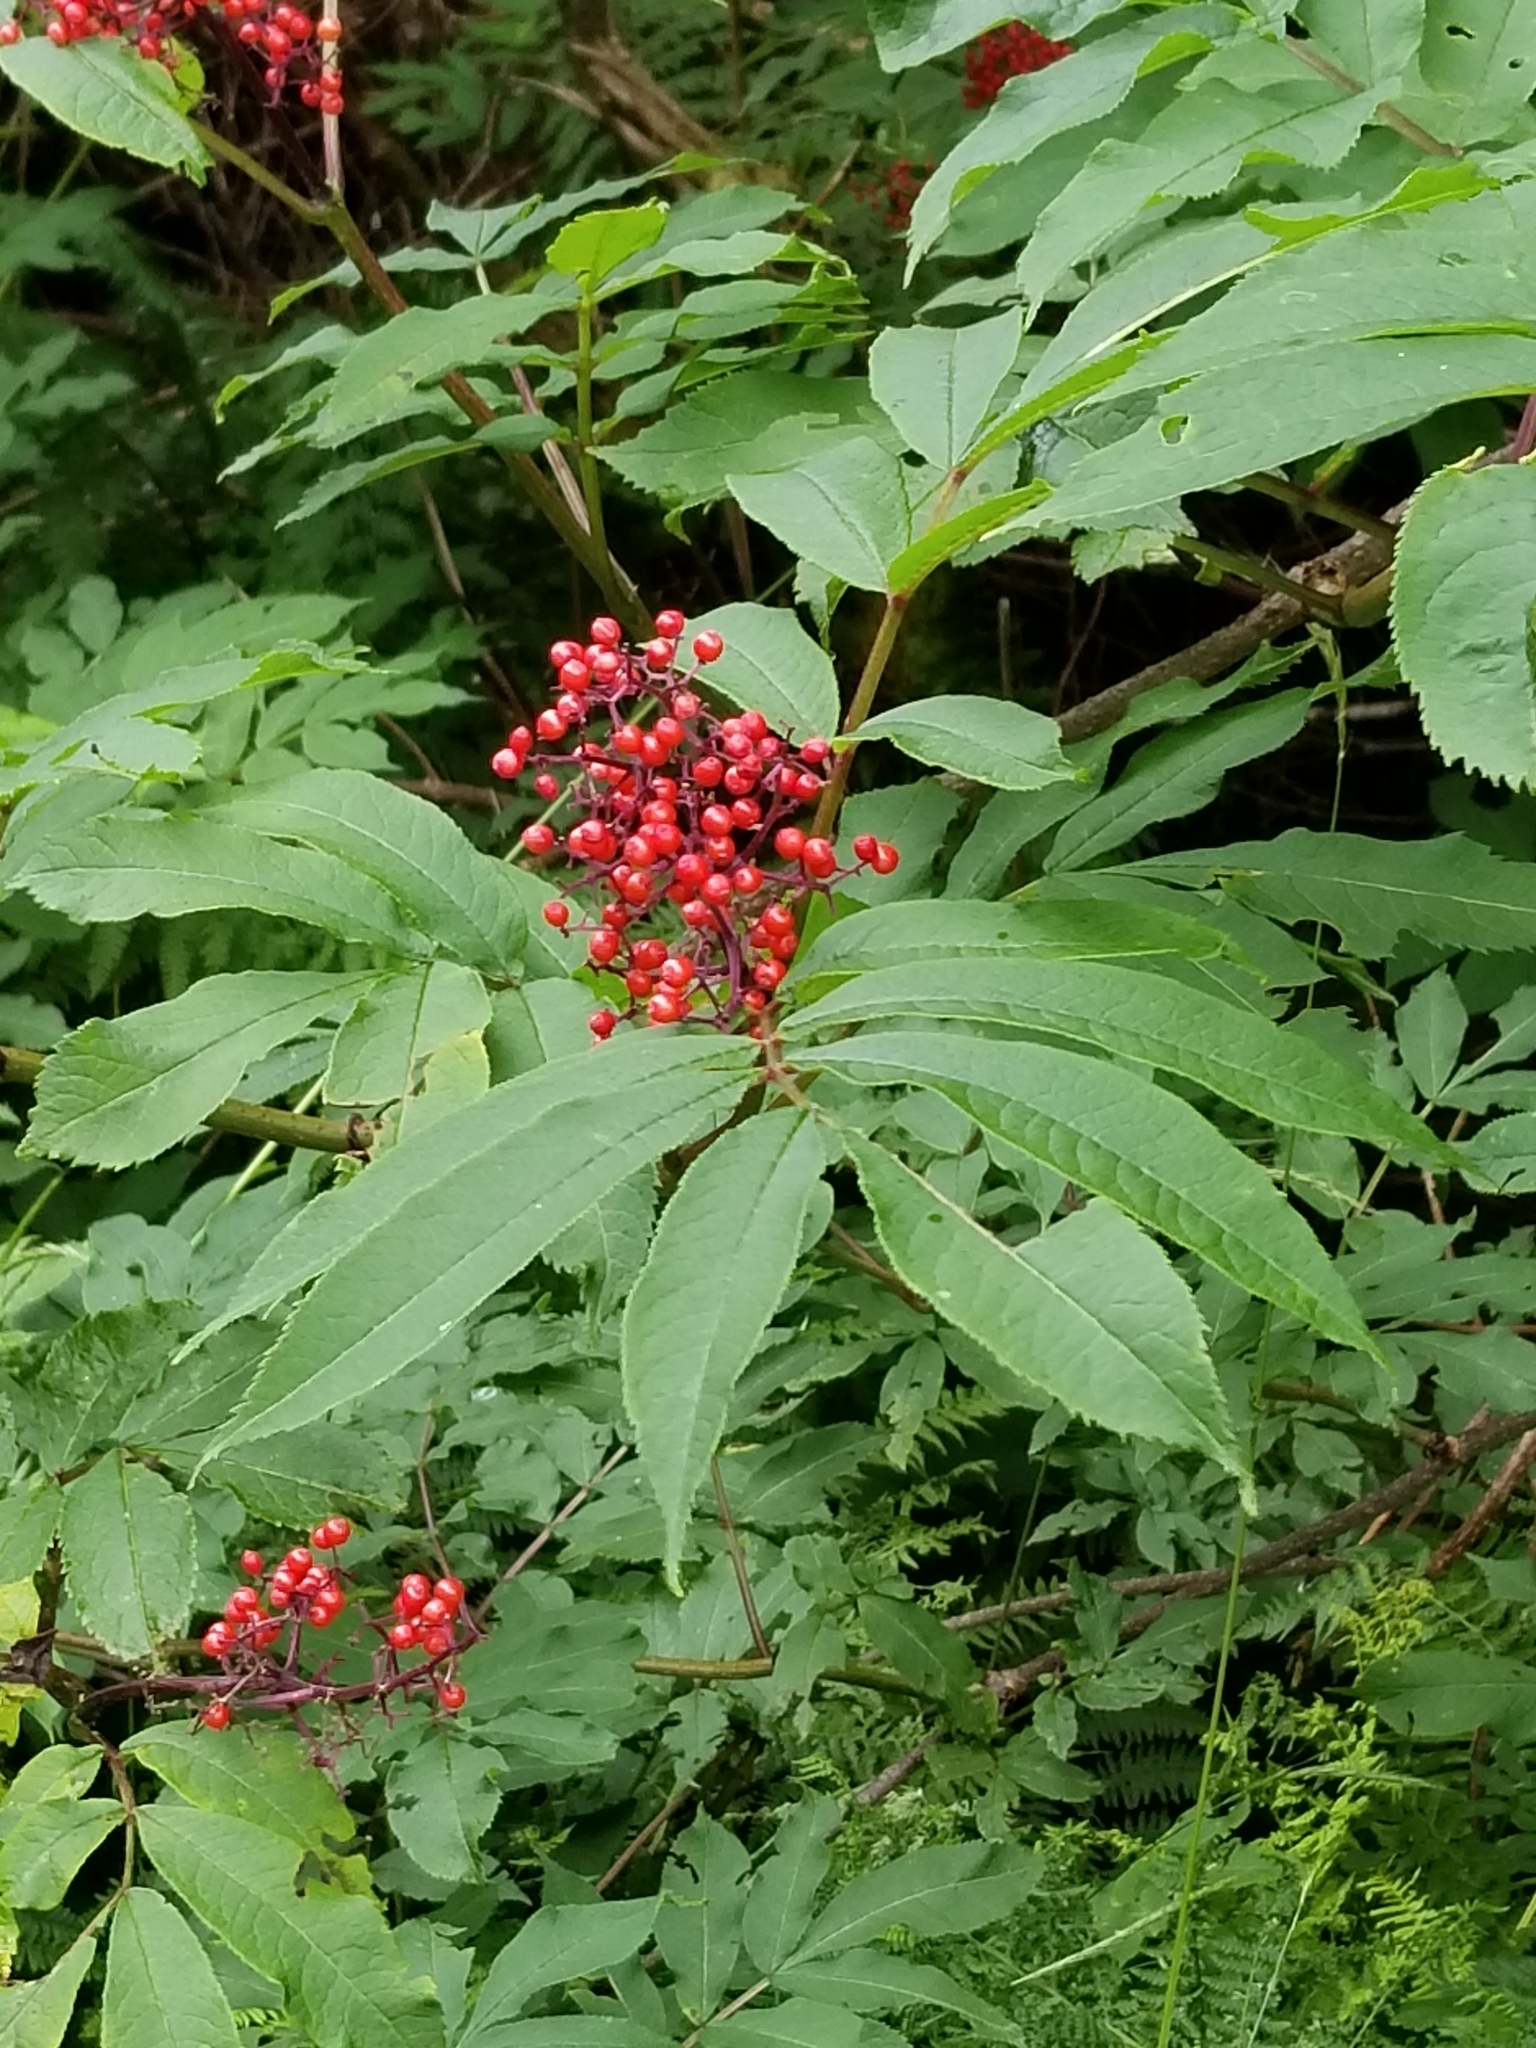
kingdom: Plantae
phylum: Tracheophyta
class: Magnoliopsida
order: Dipsacales
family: Viburnaceae
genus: Sambucus
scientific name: Sambucus racemosa
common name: Red-berried elder
